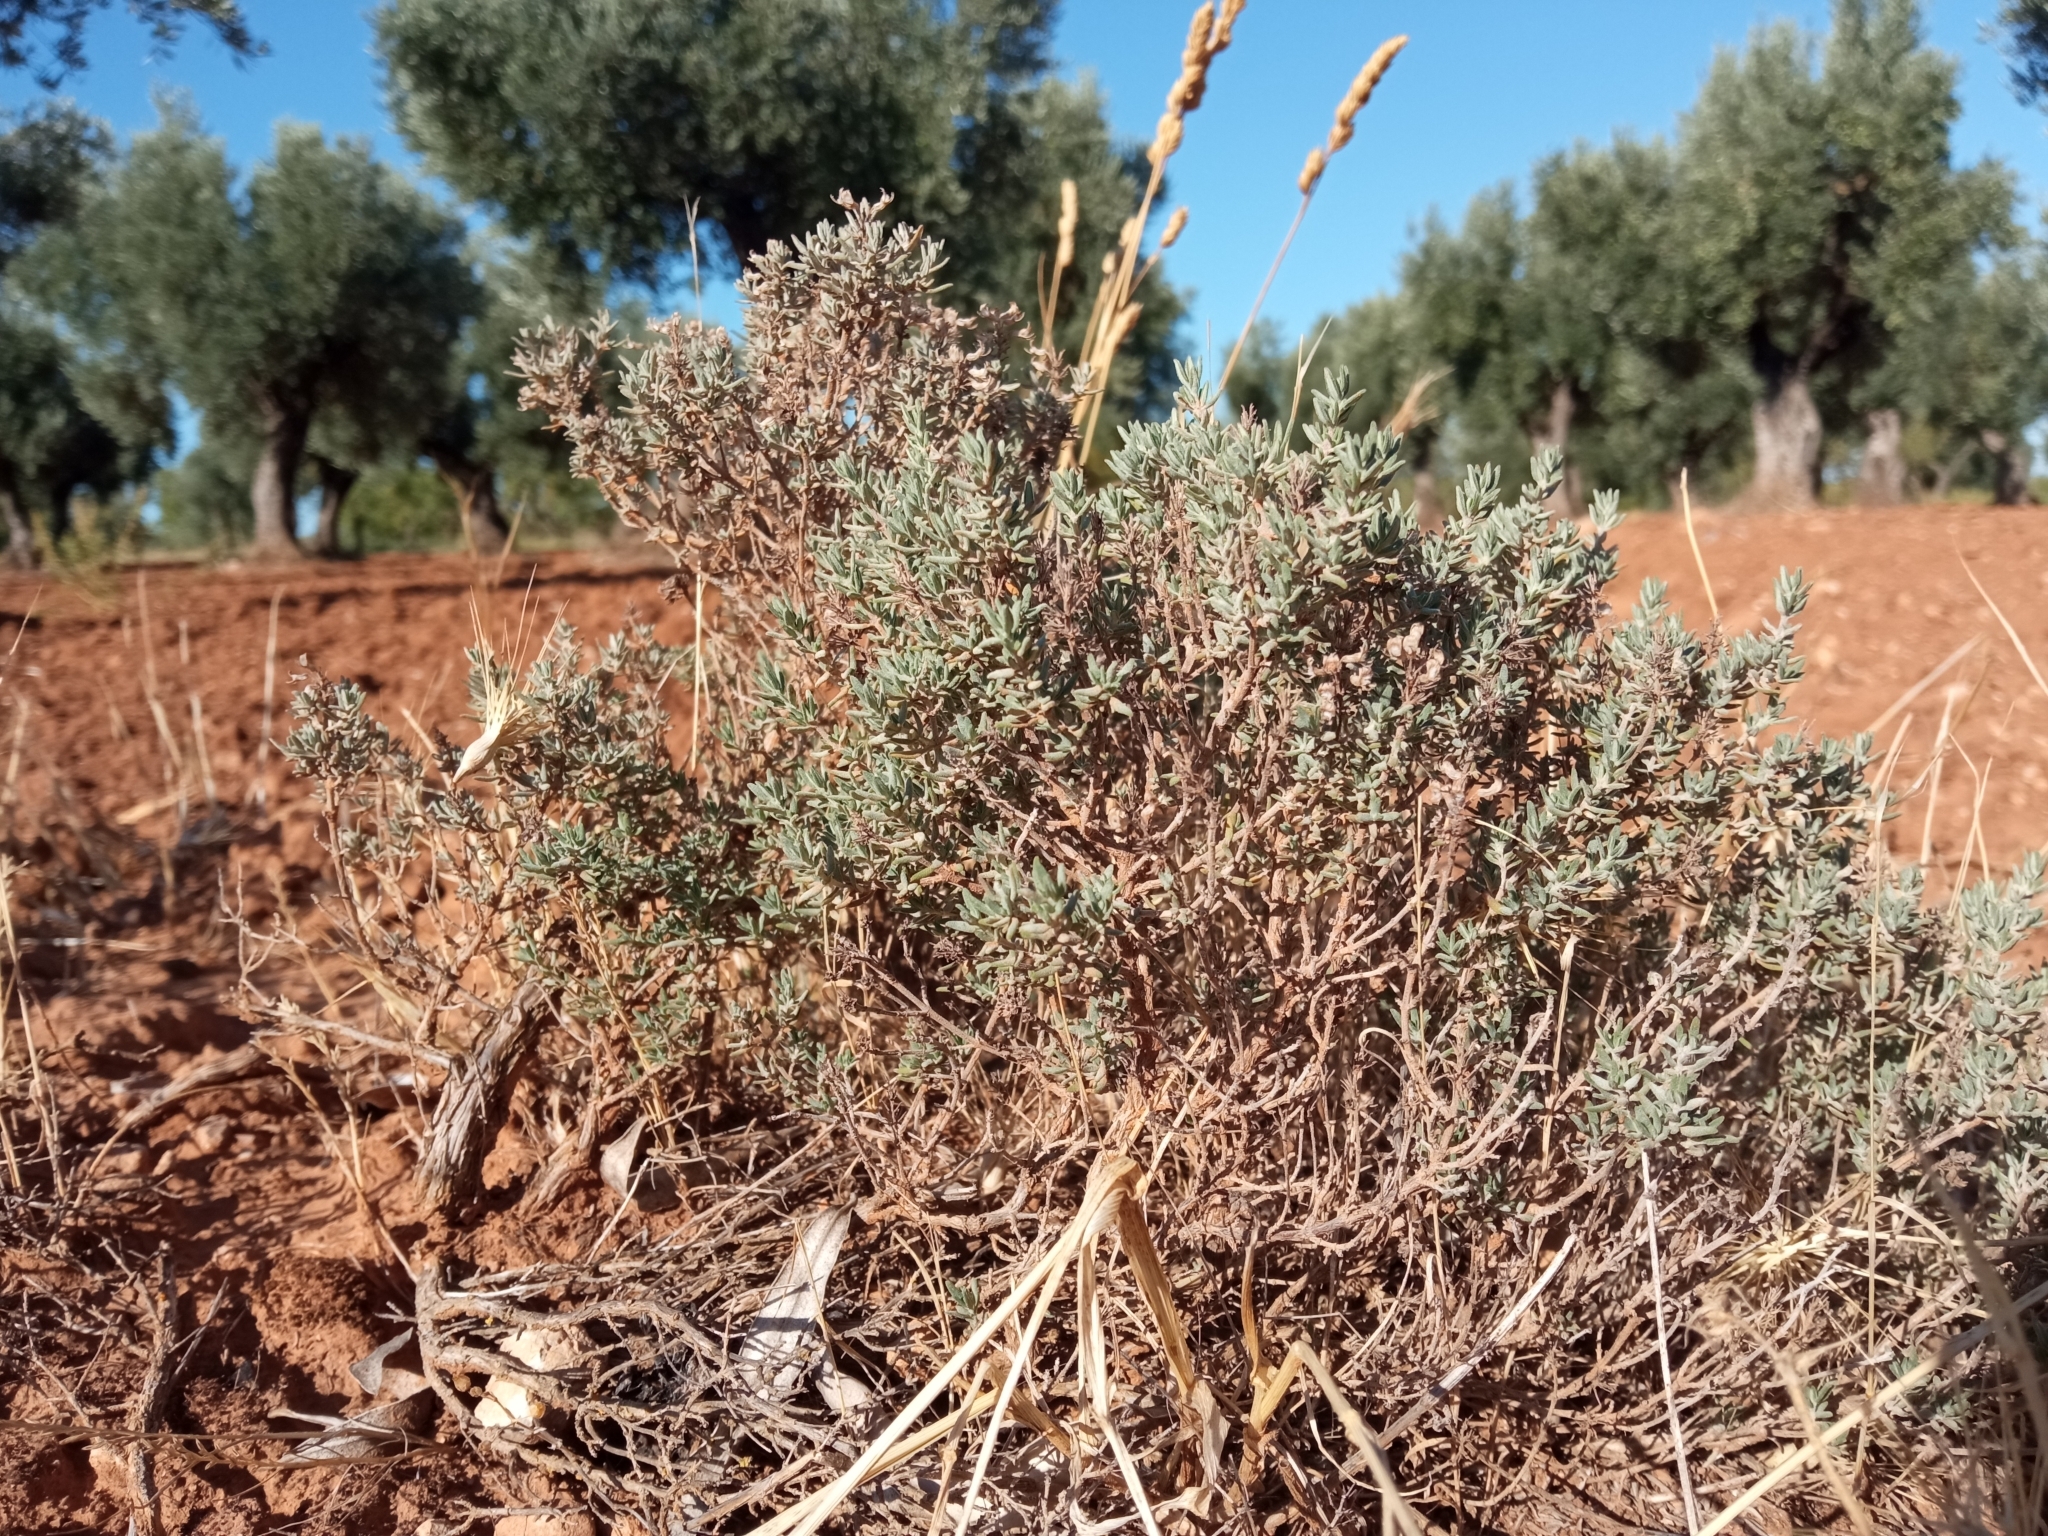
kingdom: Plantae
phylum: Tracheophyta
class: Magnoliopsida
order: Lamiales
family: Lamiaceae
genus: Thymus
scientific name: Thymus vulgaris
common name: Garden thyme
